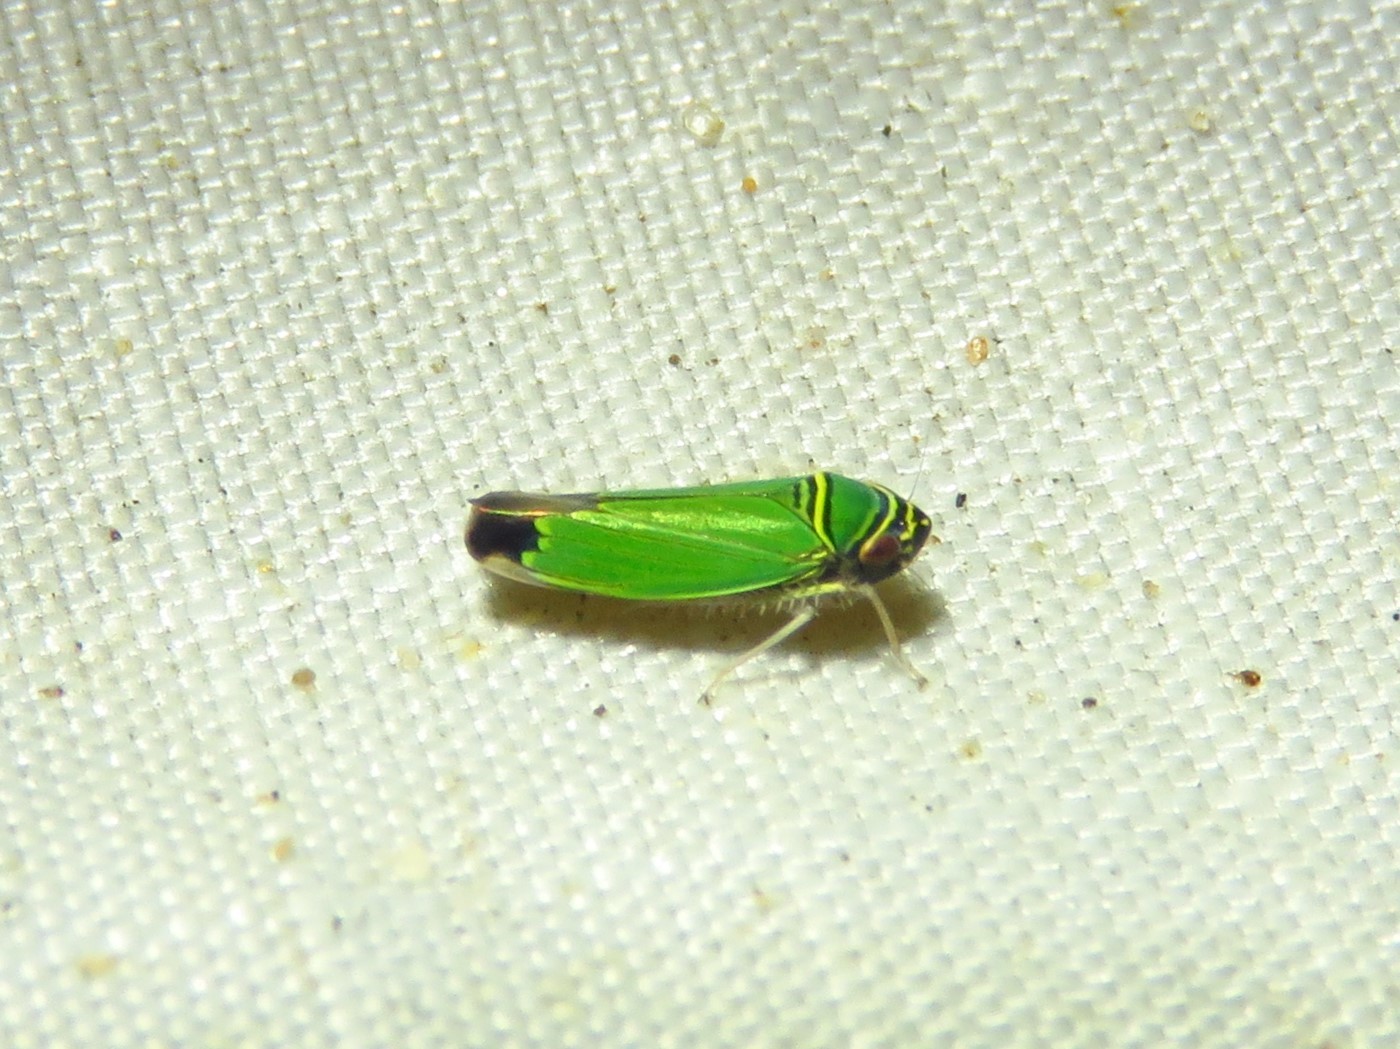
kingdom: Animalia
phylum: Arthropoda
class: Insecta
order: Hemiptera
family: Cicadellidae
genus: Tylozygus
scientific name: Tylozygus geometricus
